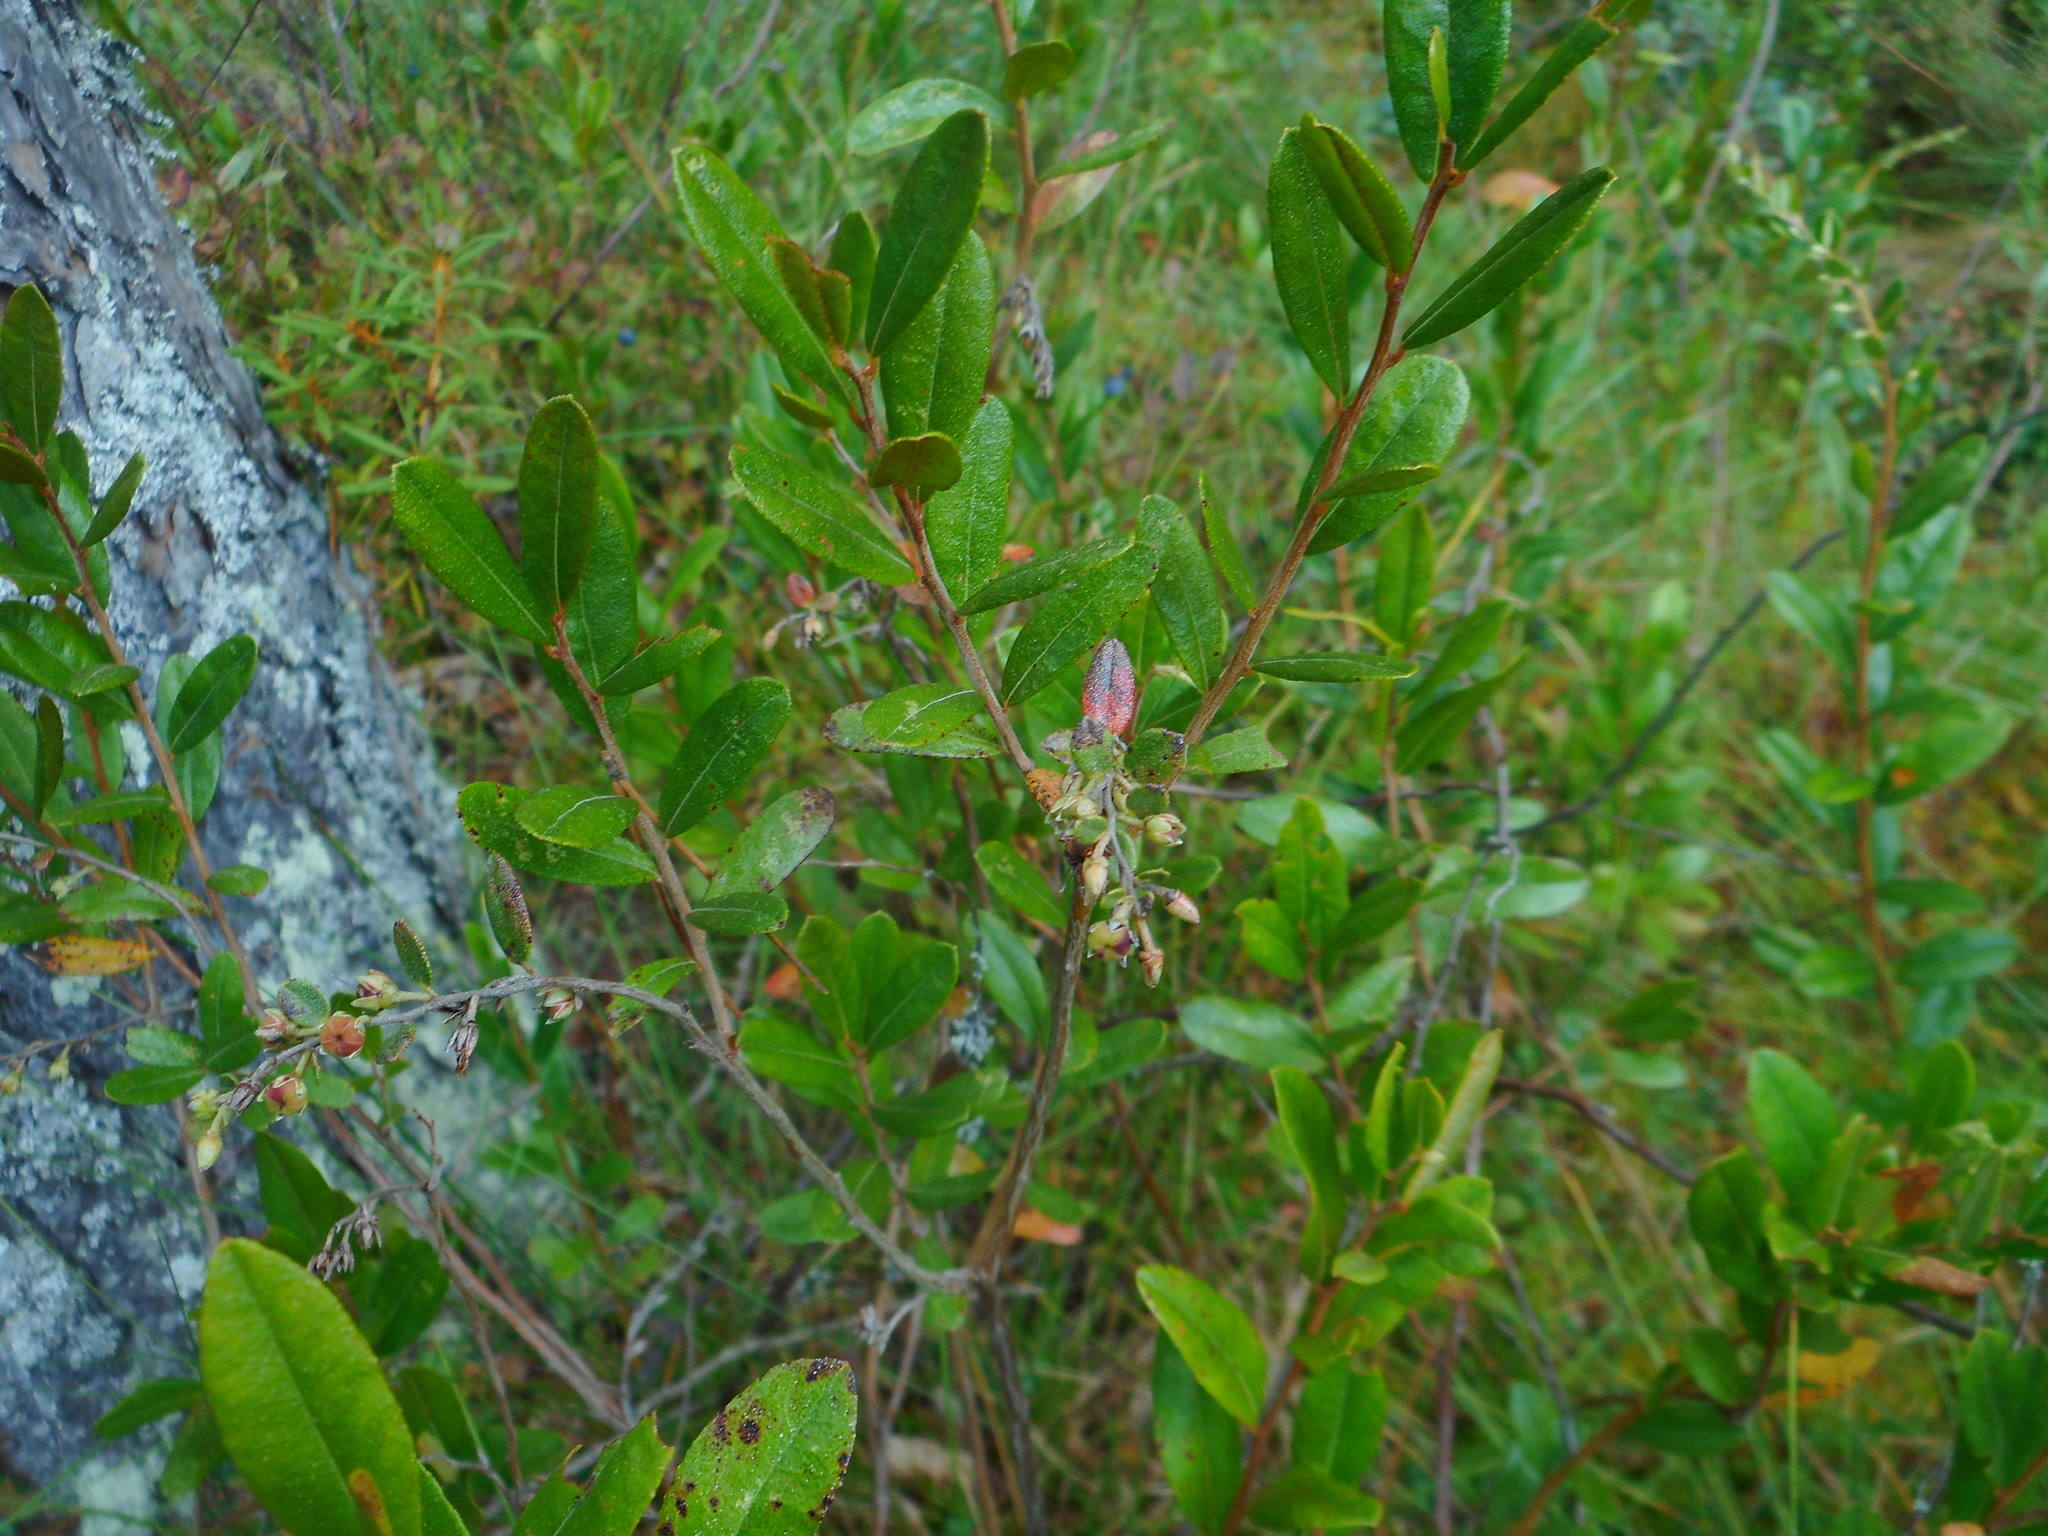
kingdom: Plantae
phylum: Tracheophyta
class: Magnoliopsida
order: Ericales
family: Ericaceae
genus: Chamaedaphne
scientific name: Chamaedaphne calyculata
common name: Leatherleaf
